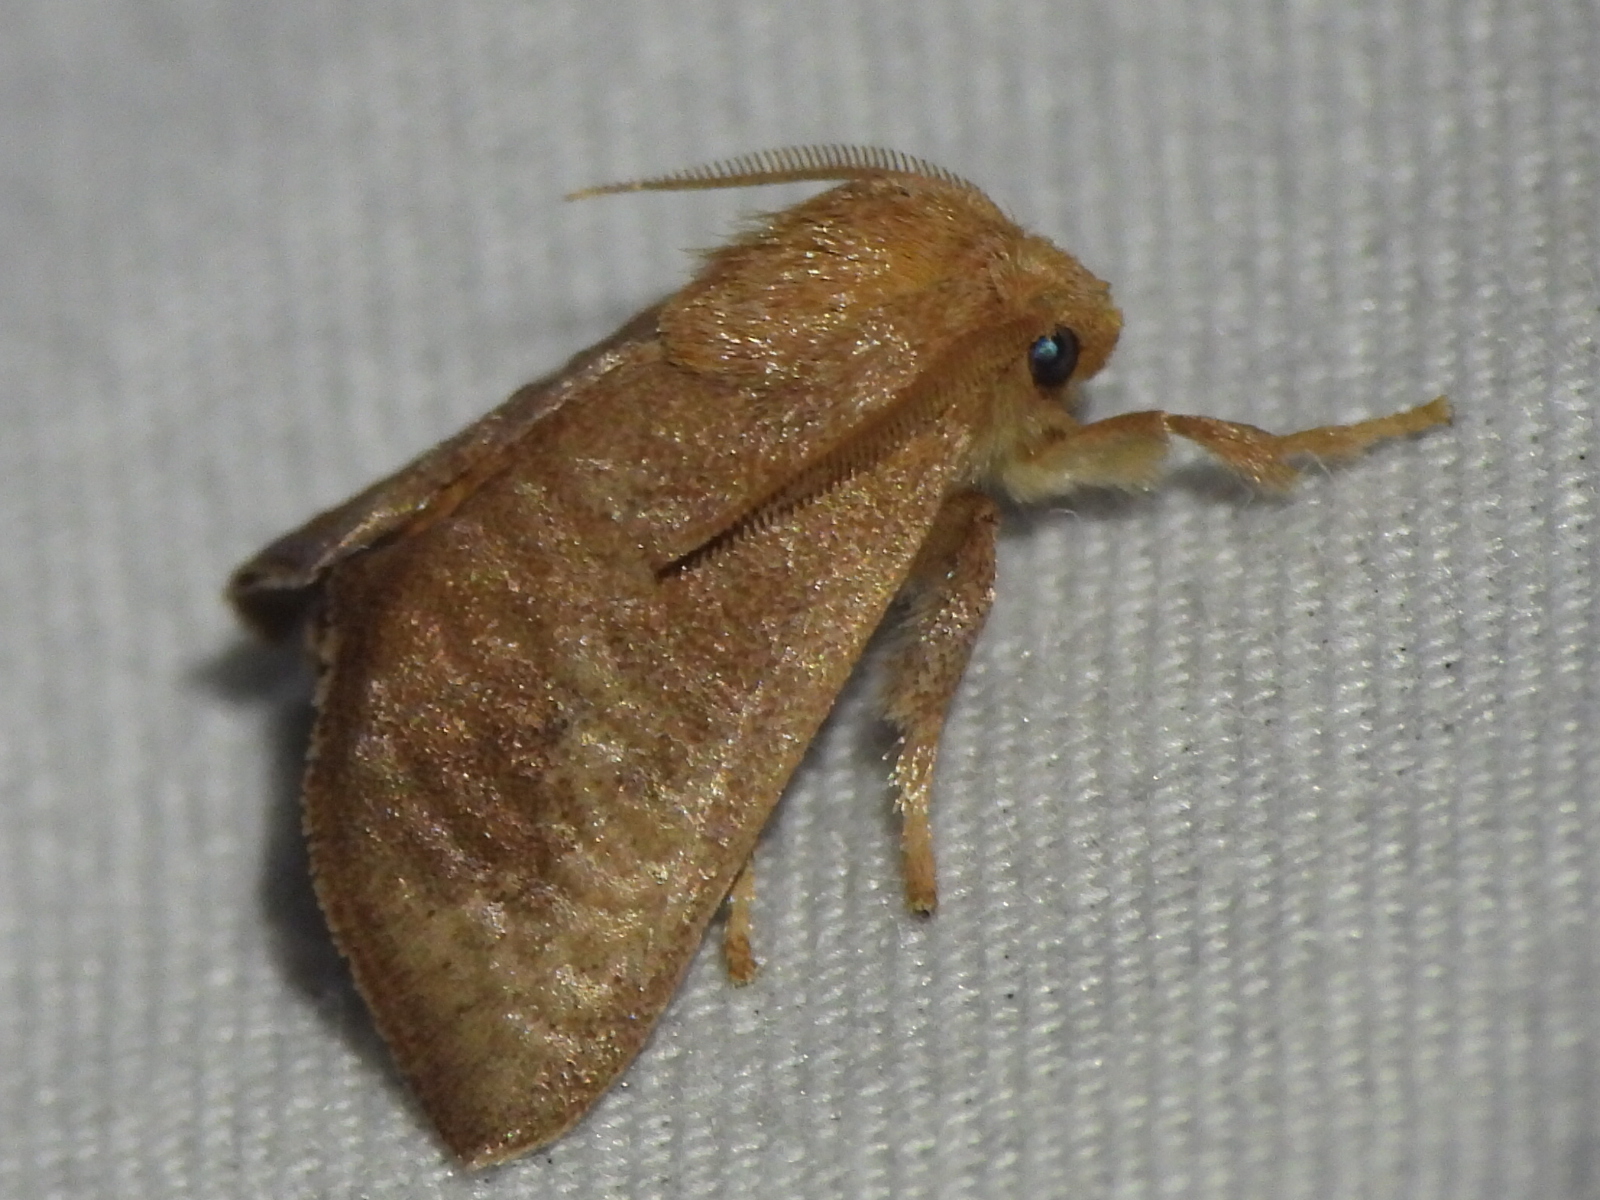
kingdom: Animalia
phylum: Arthropoda
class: Insecta
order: Lepidoptera
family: Limacodidae
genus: Isa
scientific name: Isa textula
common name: Crowned slug moth
